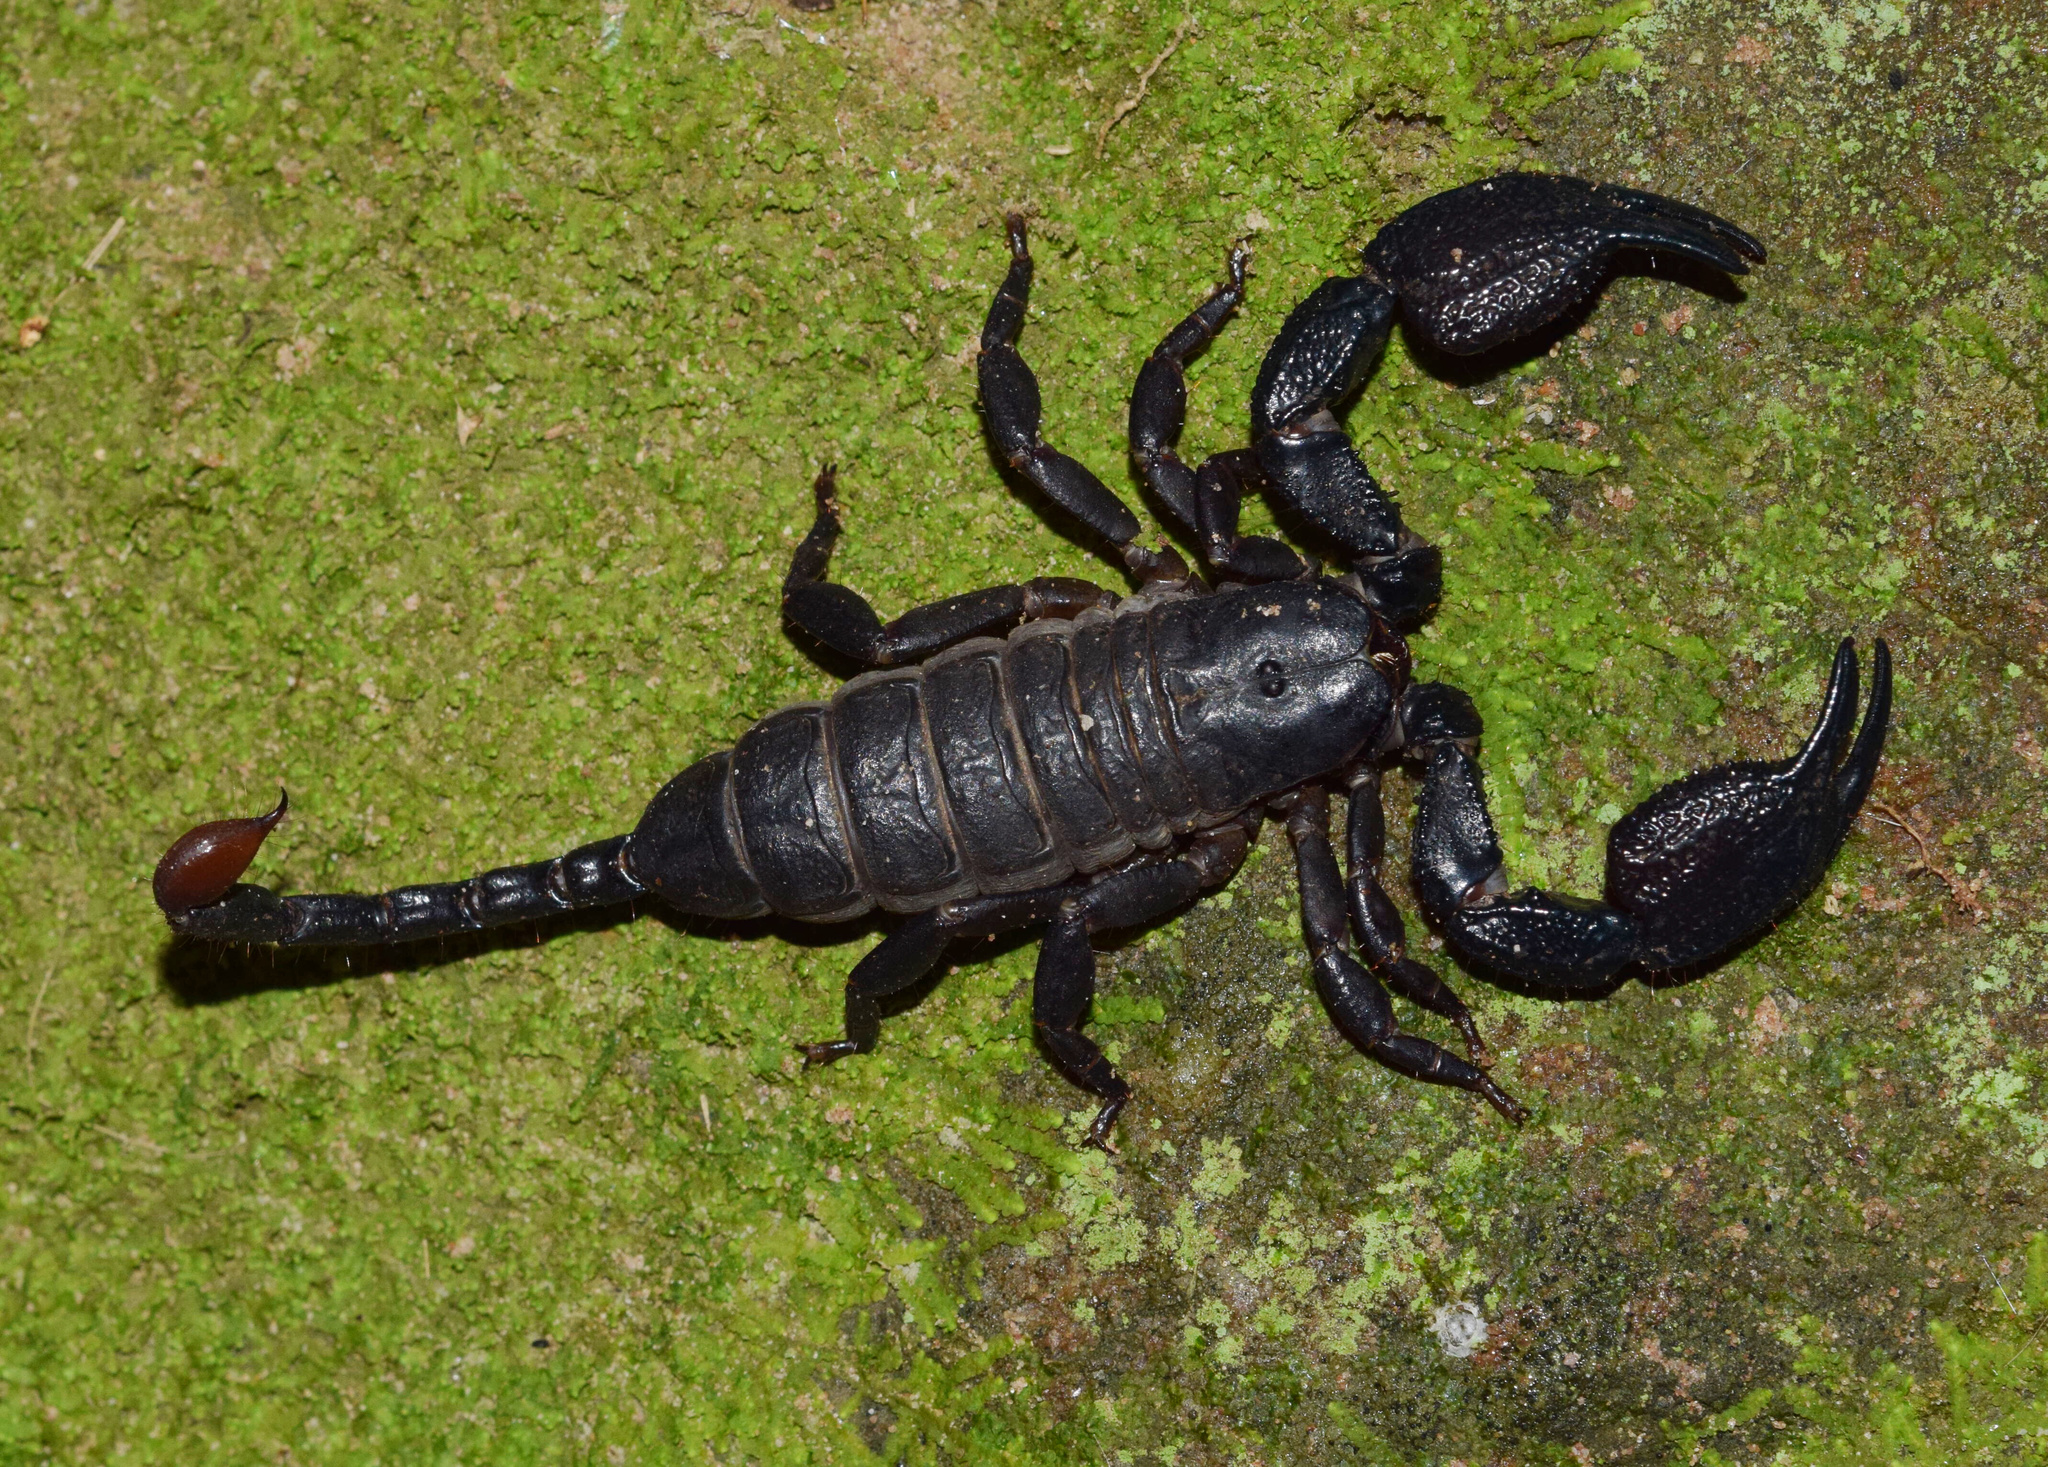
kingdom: Animalia
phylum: Arthropoda
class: Arachnida
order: Scorpiones
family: Hormuridae
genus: Opisthacanthus
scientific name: Opisthacanthus validus
